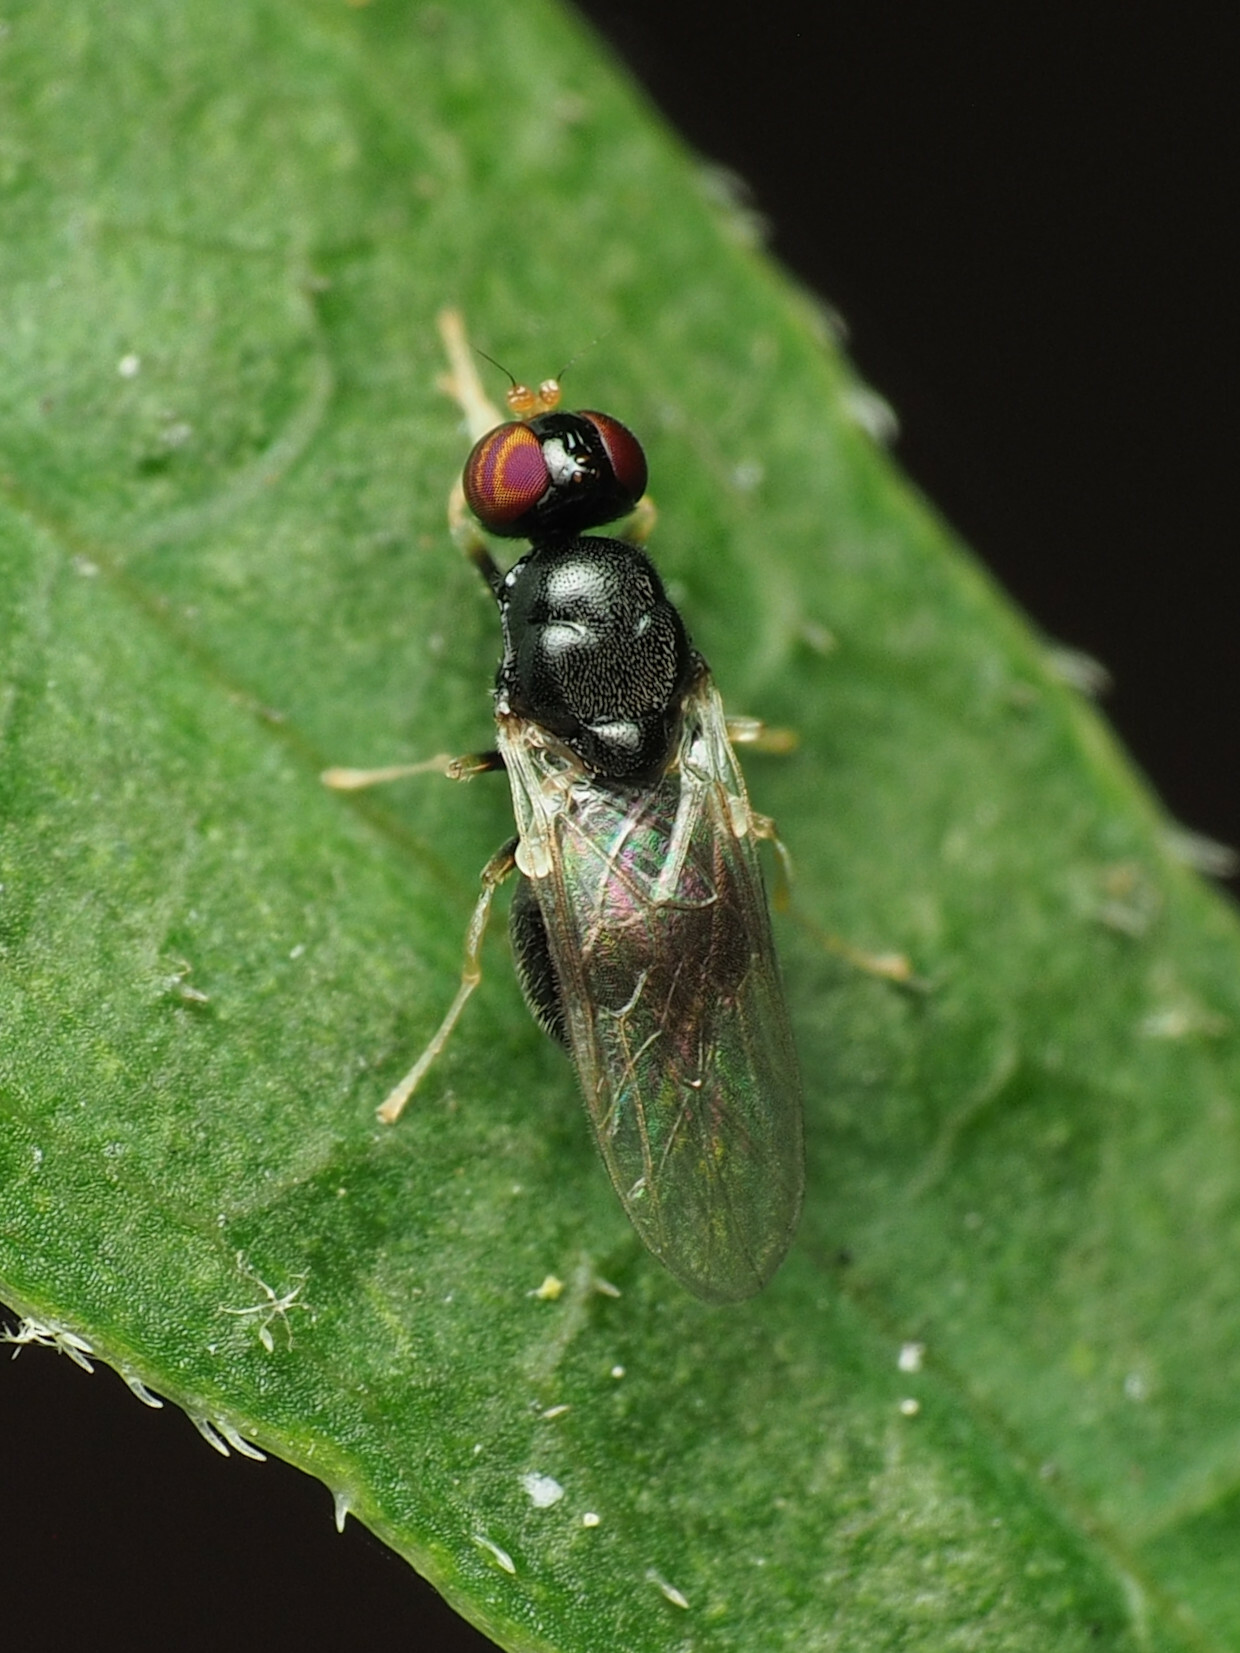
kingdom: Animalia
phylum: Arthropoda
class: Insecta
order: Diptera
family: Stratiomyidae
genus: Pachygaster
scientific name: Pachygaster pulchra
